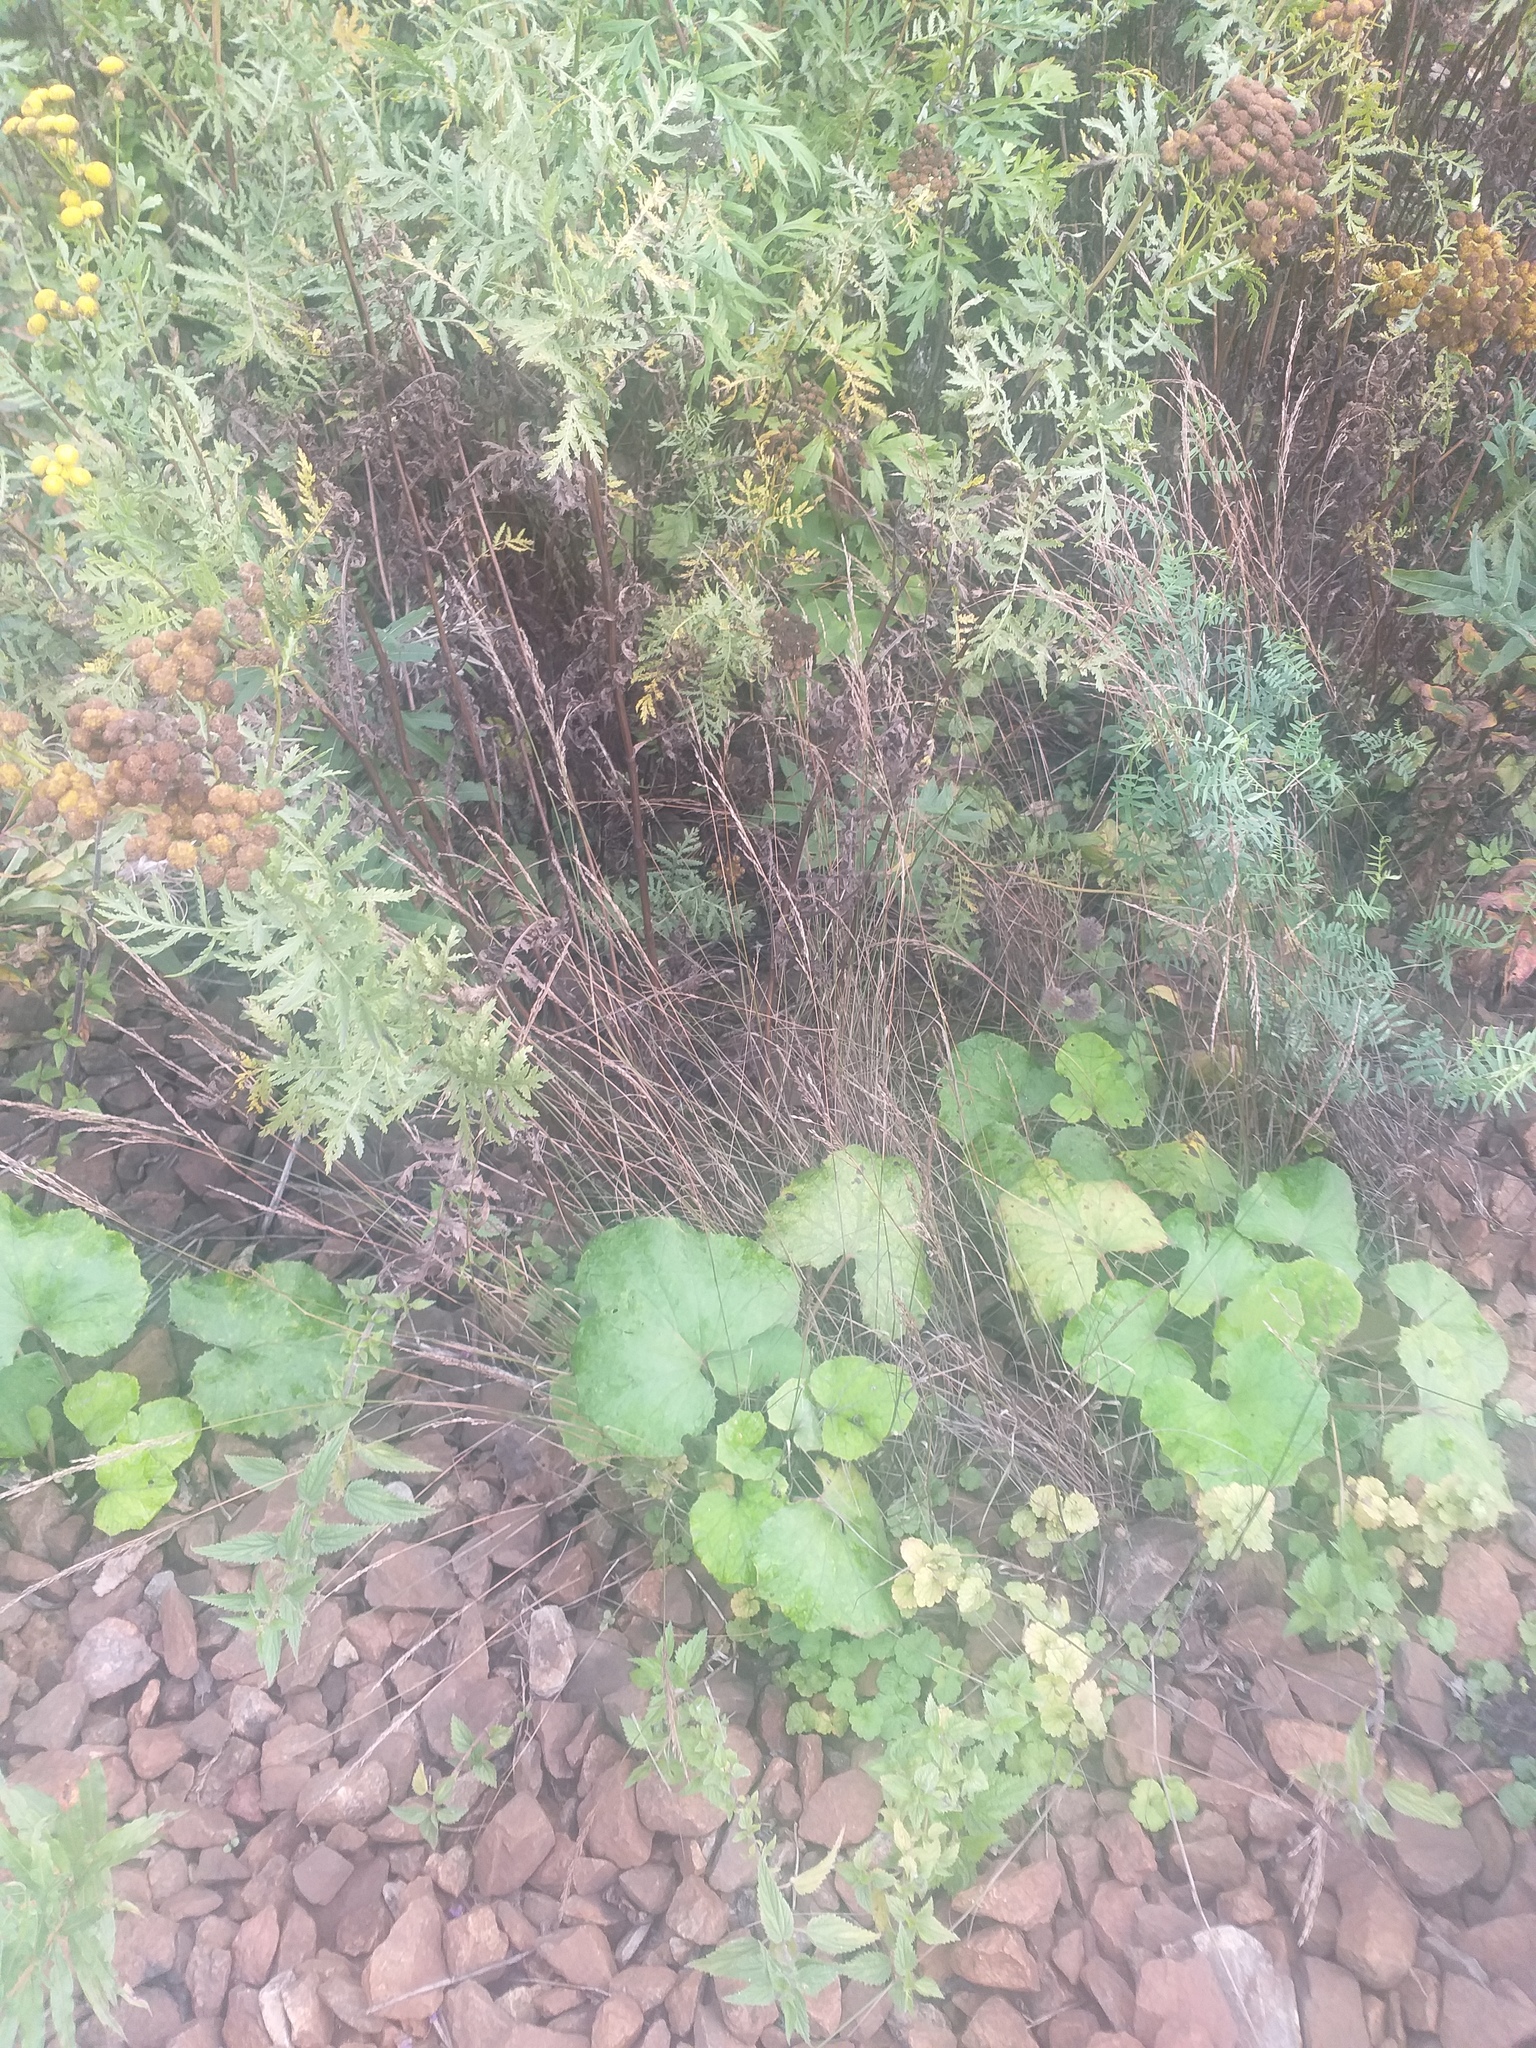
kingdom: Plantae
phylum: Tracheophyta
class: Magnoliopsida
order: Asterales
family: Asteraceae
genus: Tussilago
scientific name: Tussilago farfara
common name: Coltsfoot
